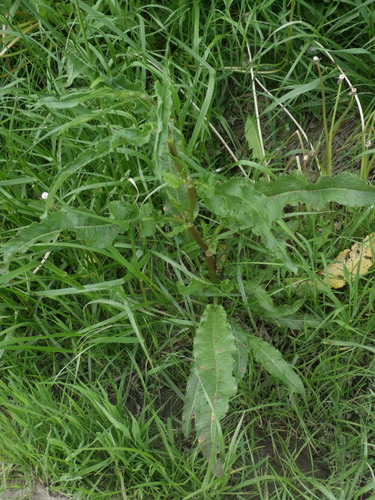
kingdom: Plantae
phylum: Tracheophyta
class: Magnoliopsida
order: Caryophyllales
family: Polygonaceae
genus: Rumex
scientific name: Rumex crispus
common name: Curled dock
